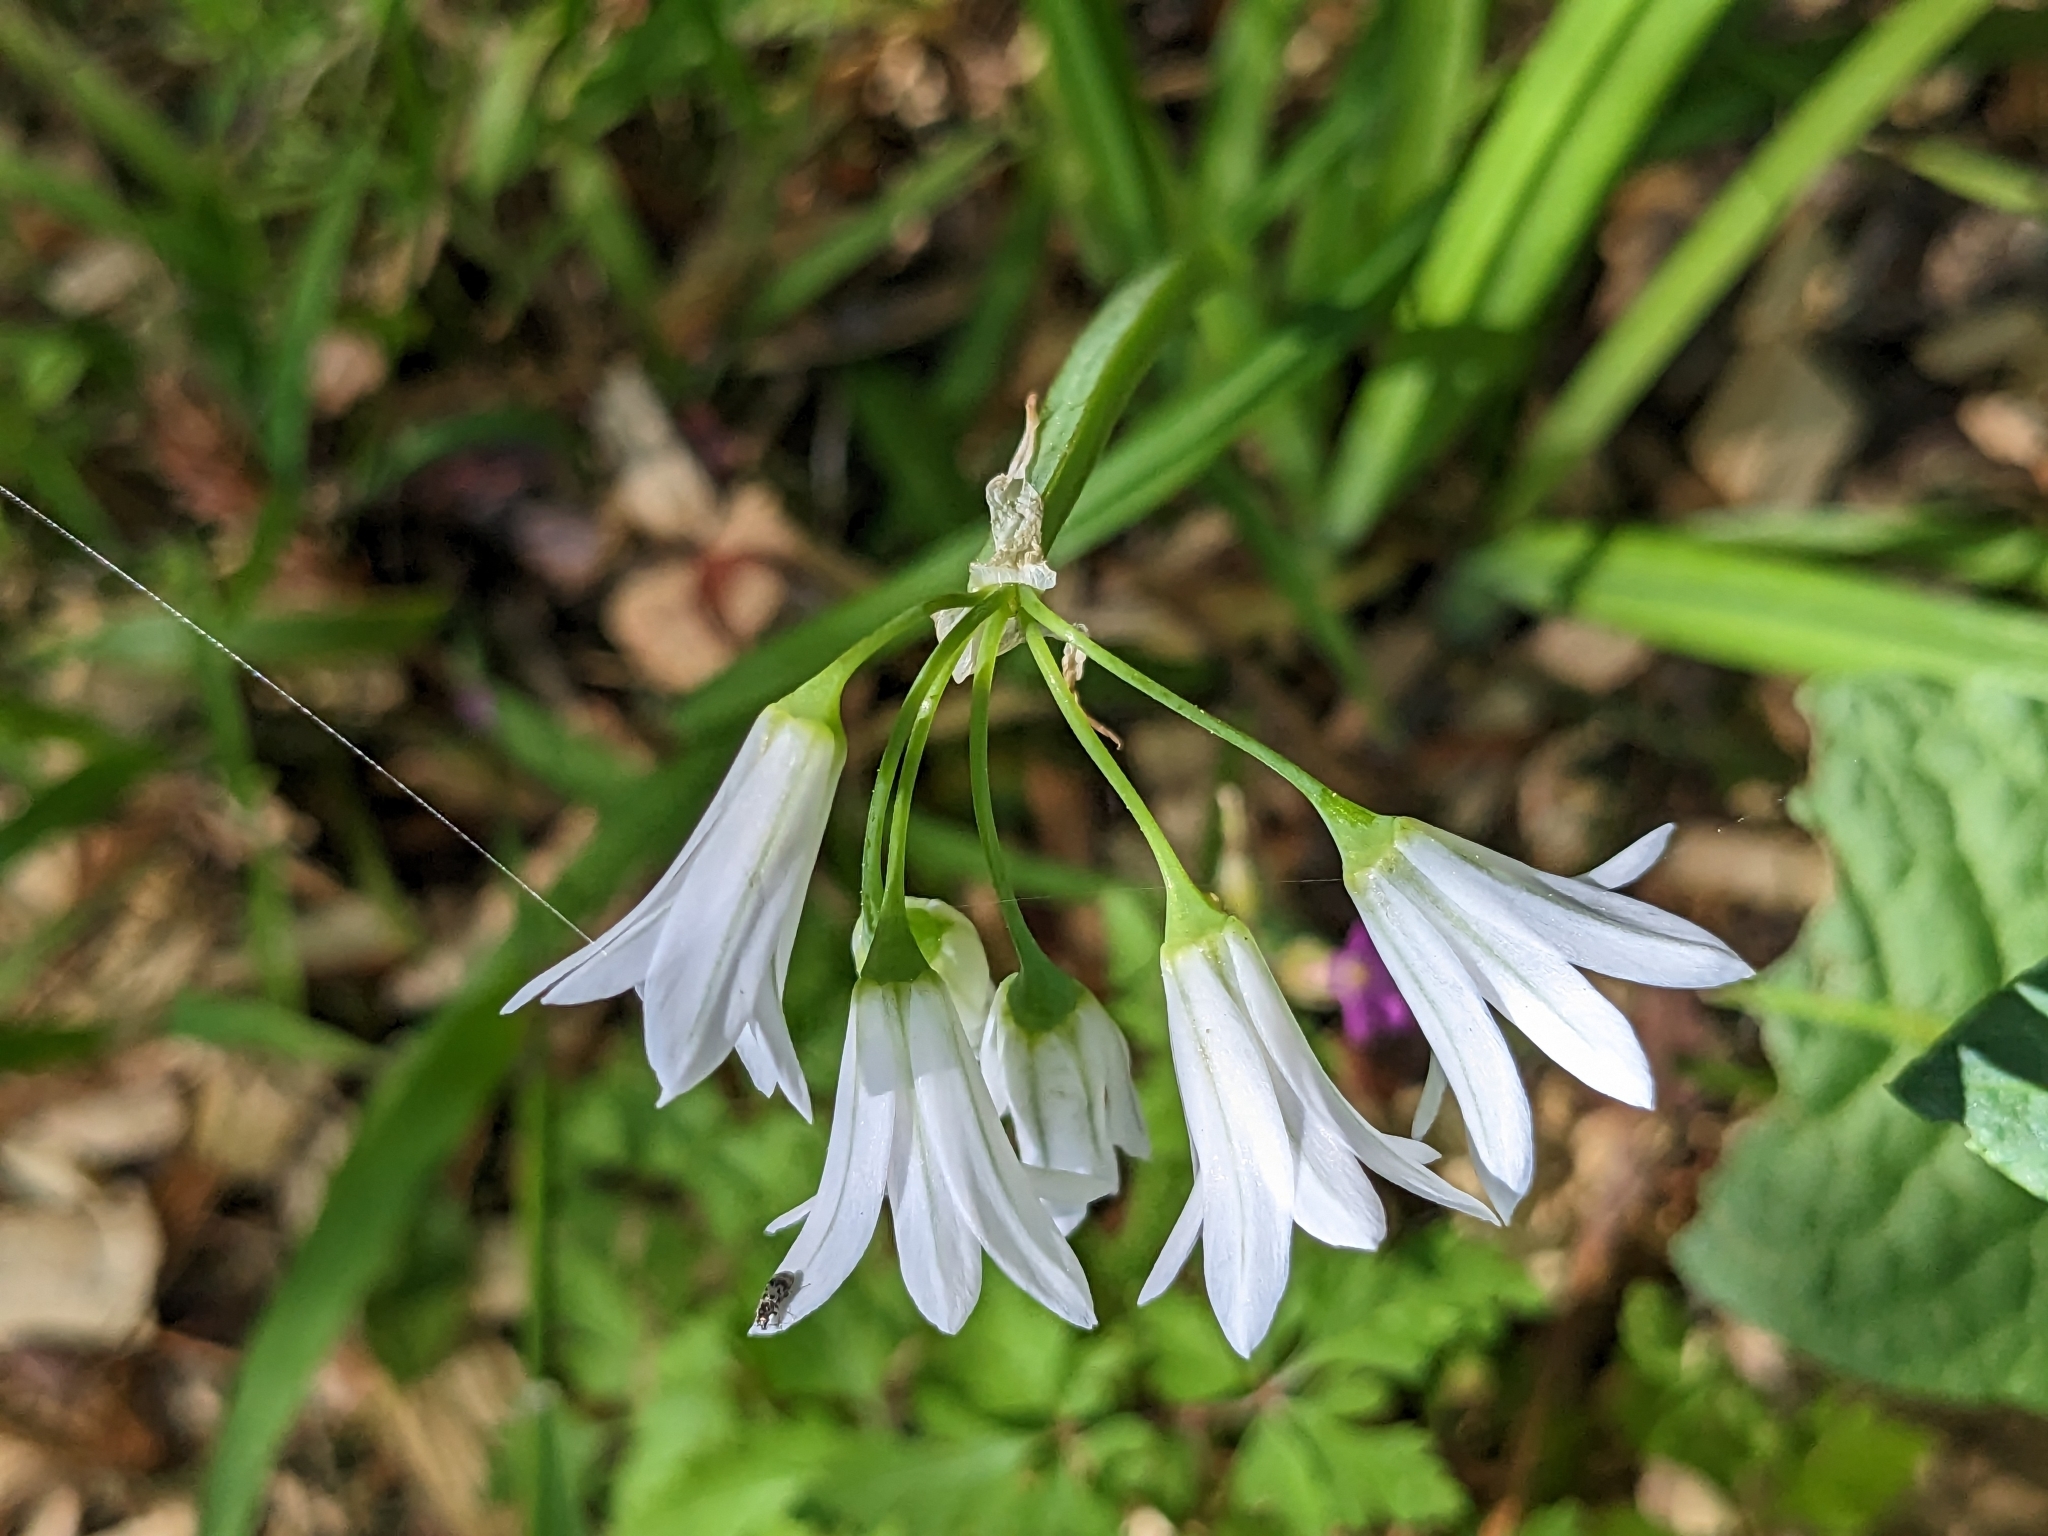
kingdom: Plantae
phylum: Tracheophyta
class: Liliopsida
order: Asparagales
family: Amaryllidaceae
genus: Allium
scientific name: Allium triquetrum
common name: Three-cornered garlic
